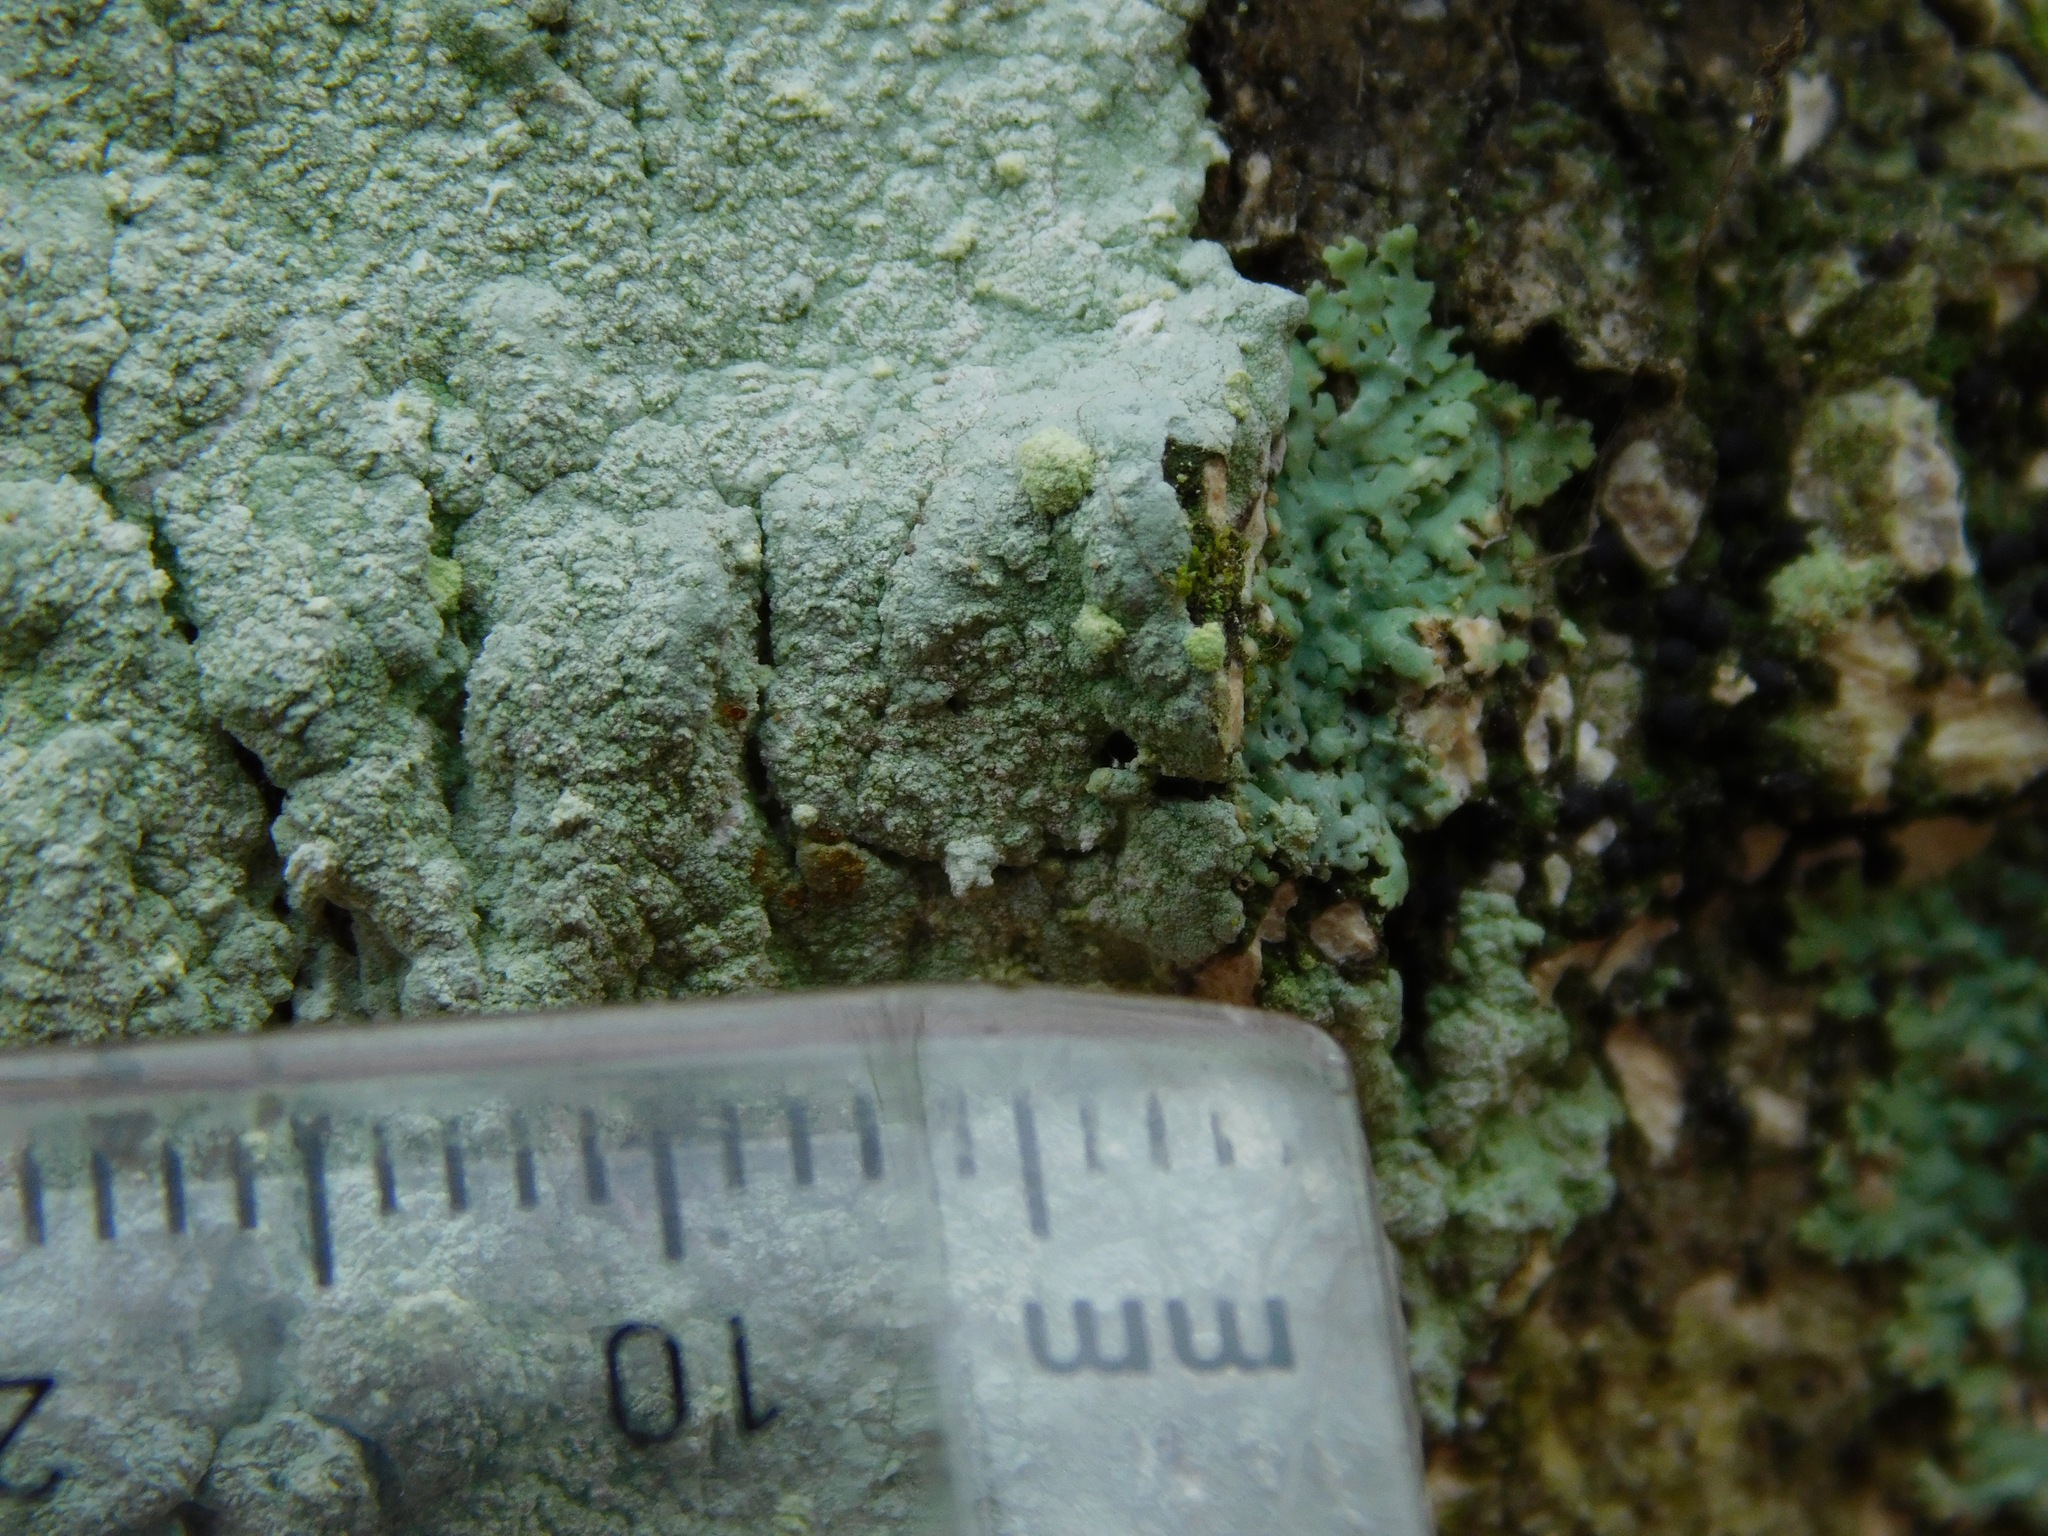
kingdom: Fungi
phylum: Ascomycota
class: Lecanoromycetes
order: Ostropales
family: Phlyctidaceae
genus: Phlyctis
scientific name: Phlyctis boliviensis
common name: Bark whitewash
